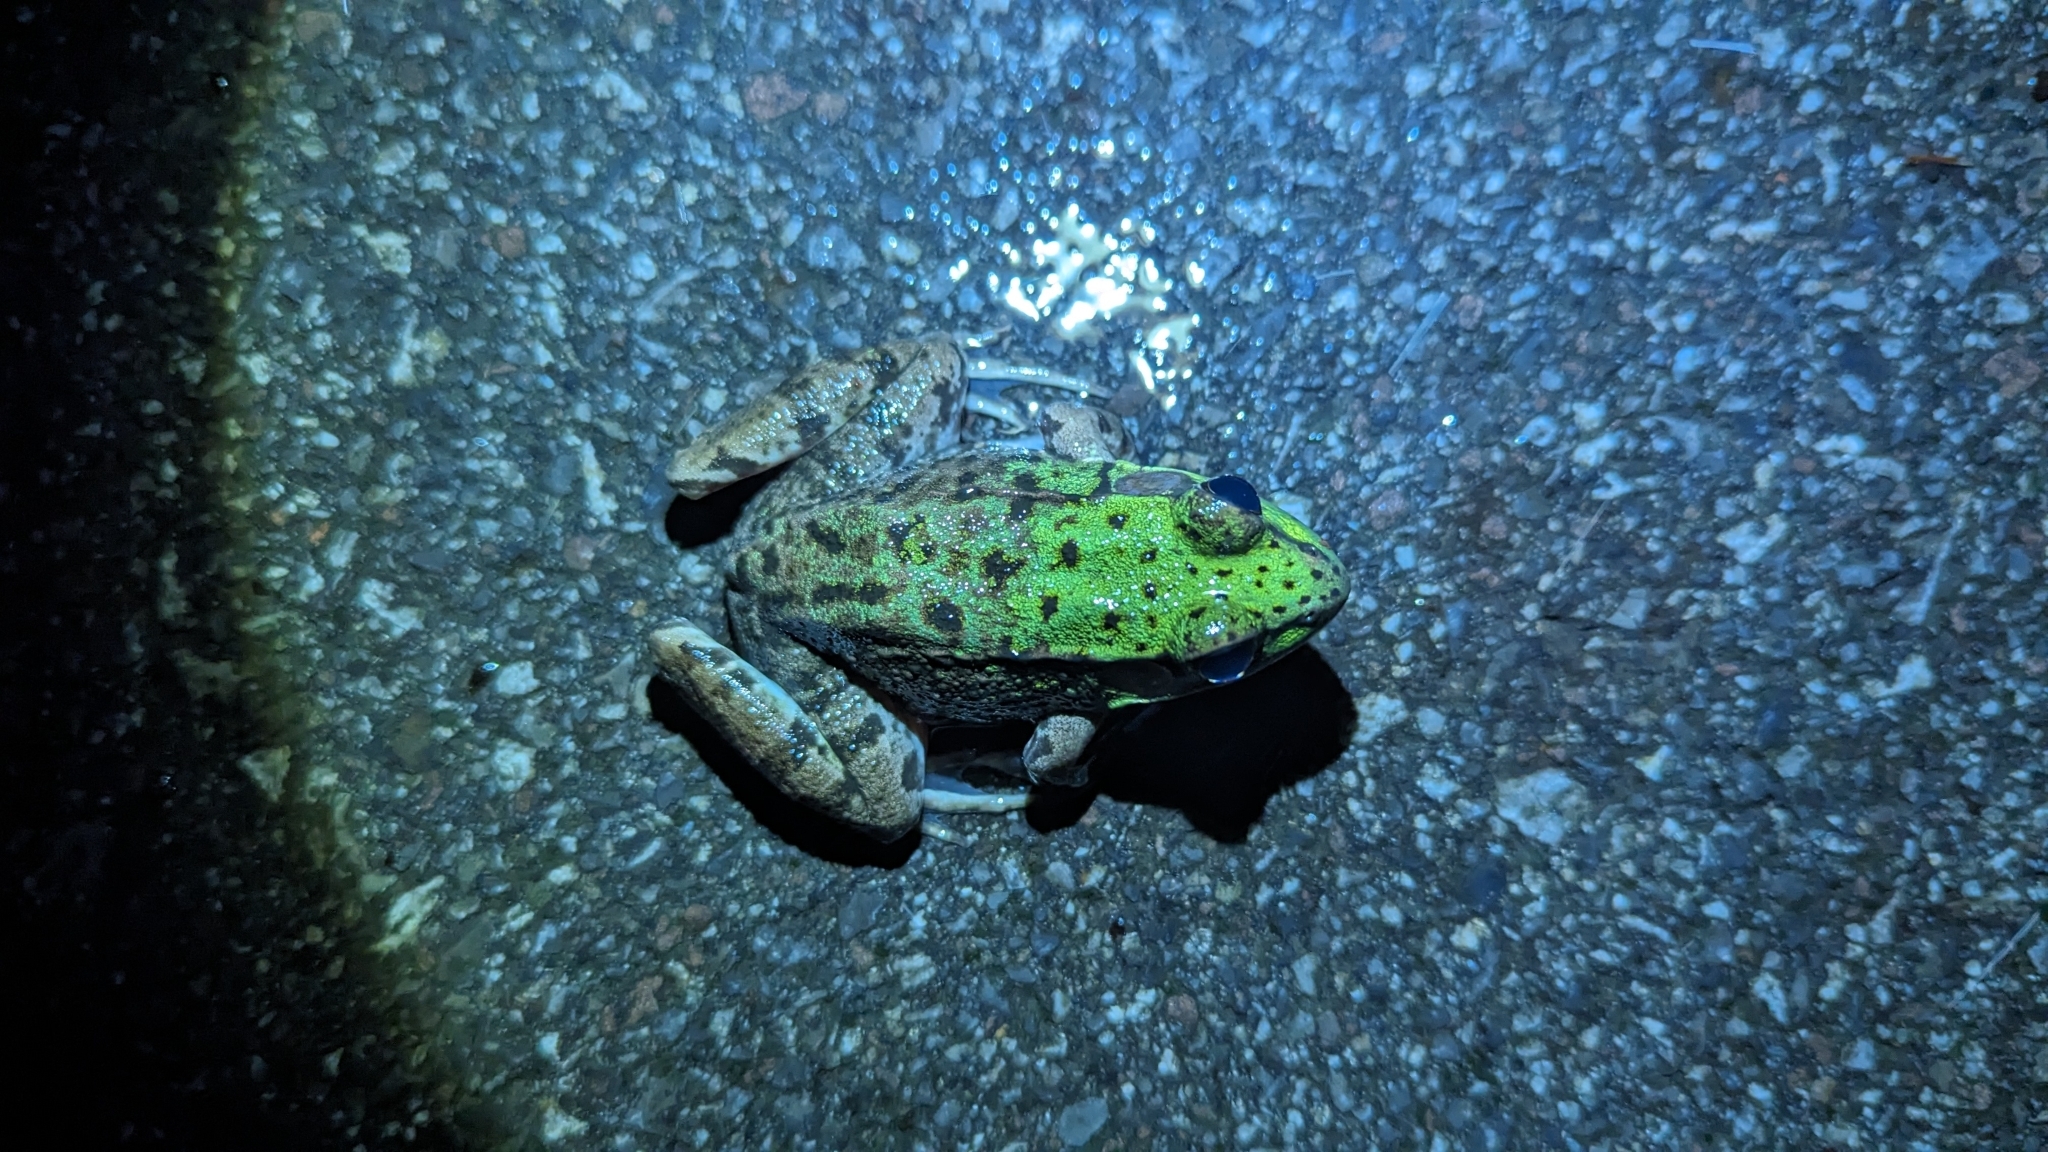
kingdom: Animalia
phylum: Chordata
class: Amphibia
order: Anura
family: Ranidae
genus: Lithobates
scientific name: Lithobates clamitans
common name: Green frog
